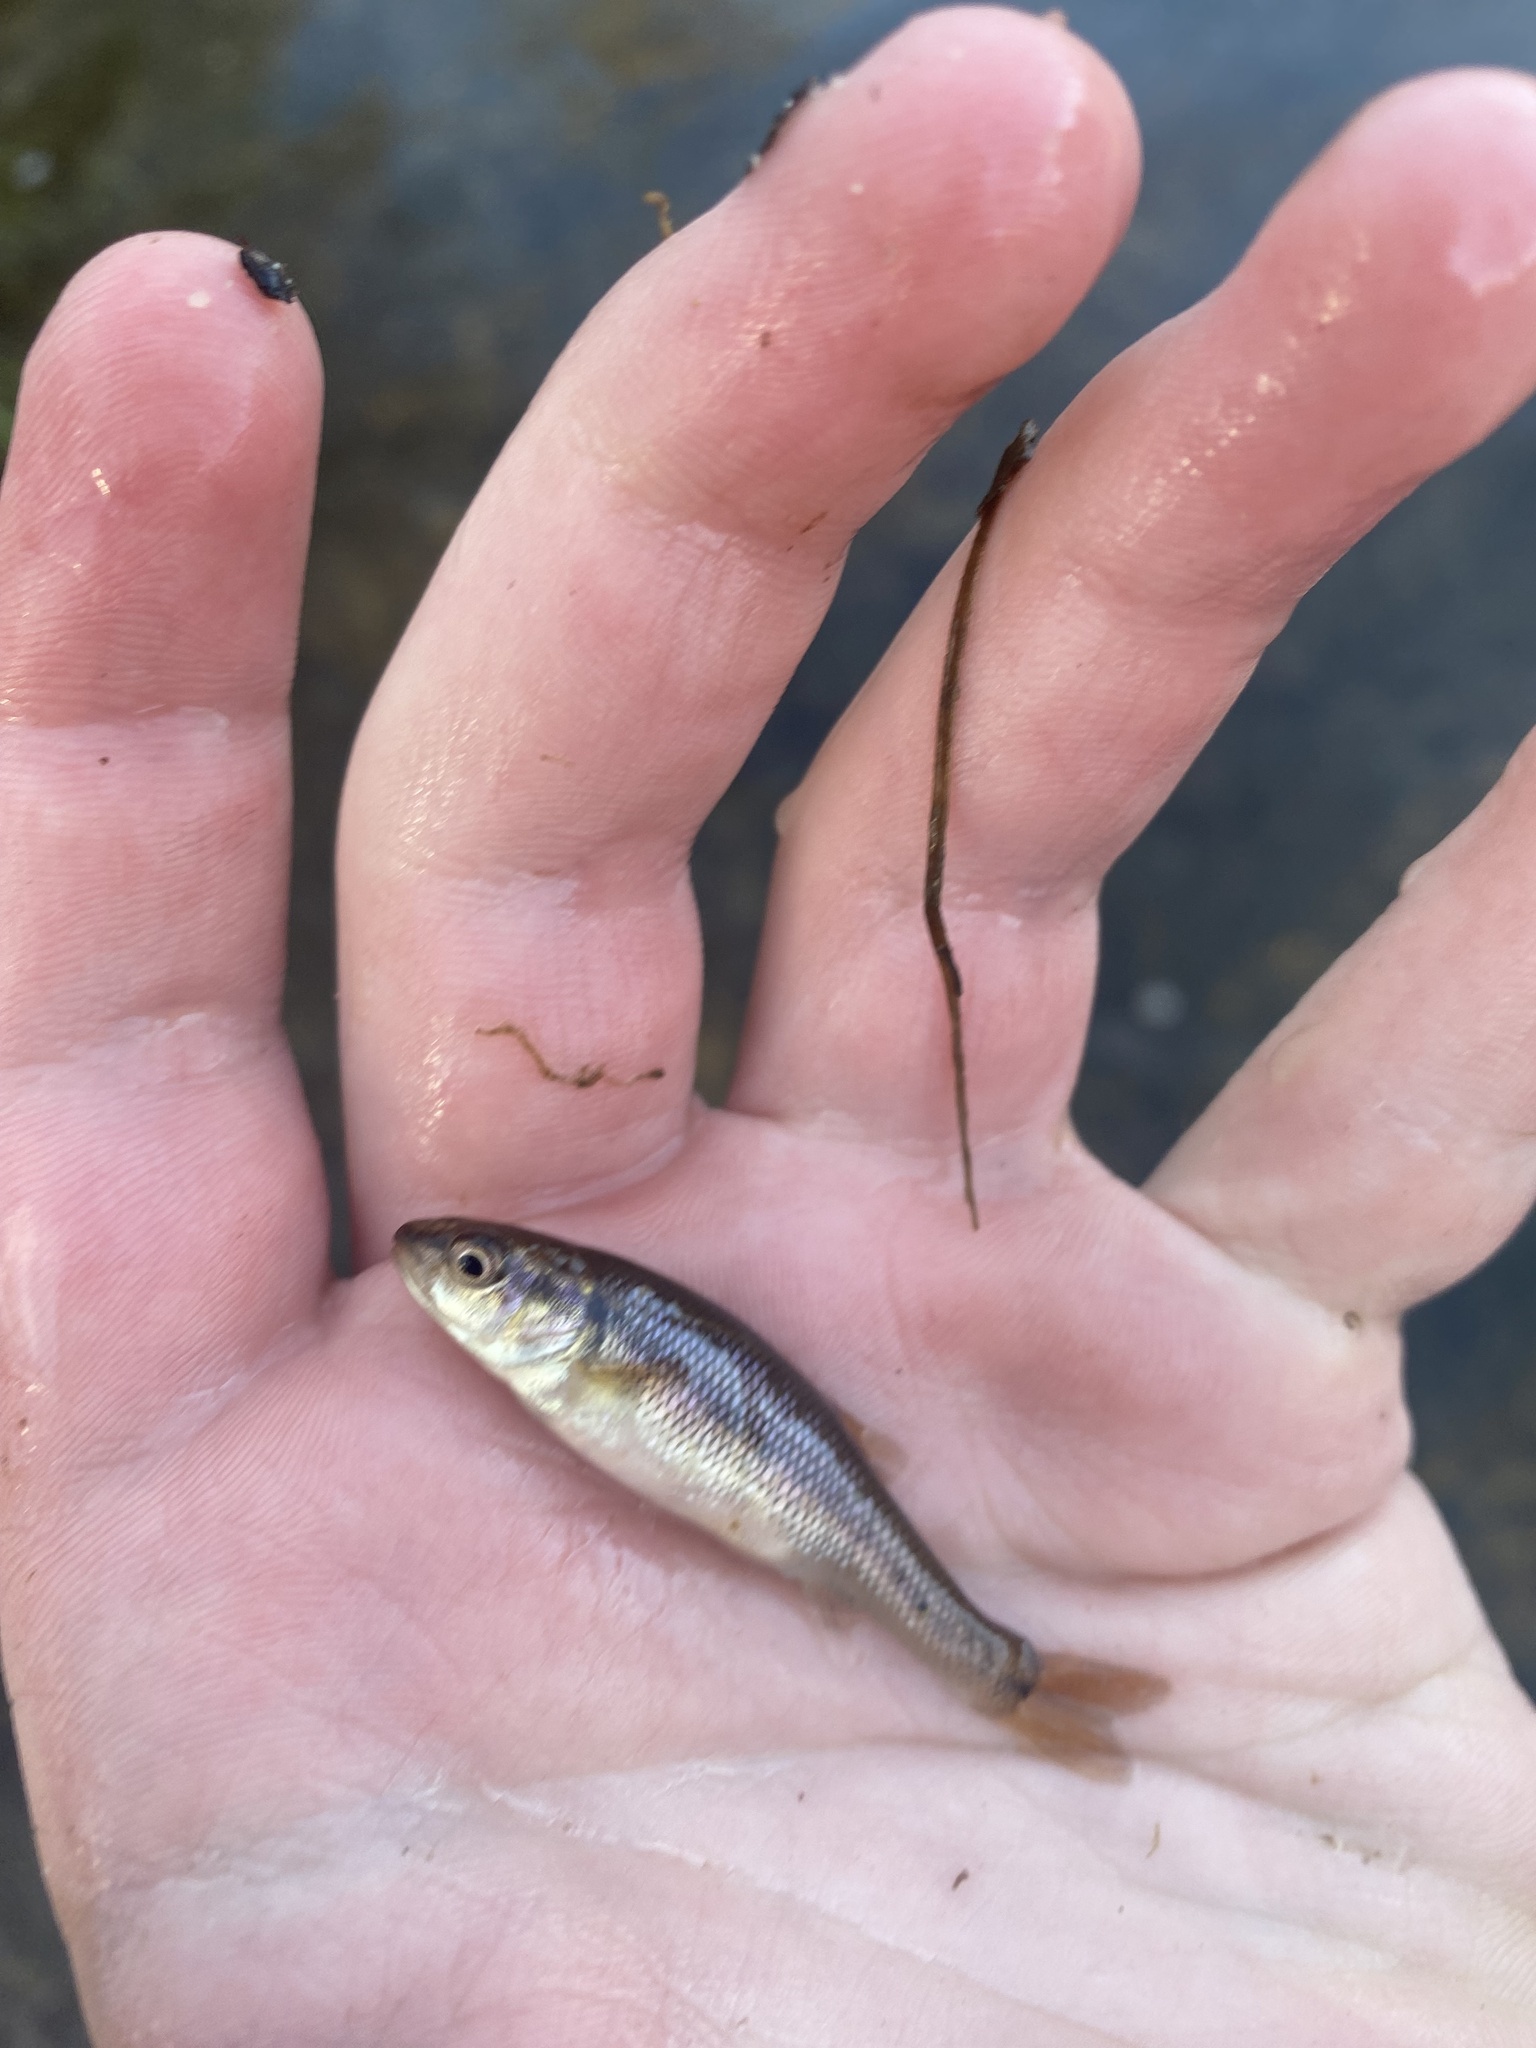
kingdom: Animalia
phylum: Chordata
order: Cypriniformes
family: Cyprinidae
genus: Semotilus
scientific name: Semotilus atromaculatus
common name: Creek chub
